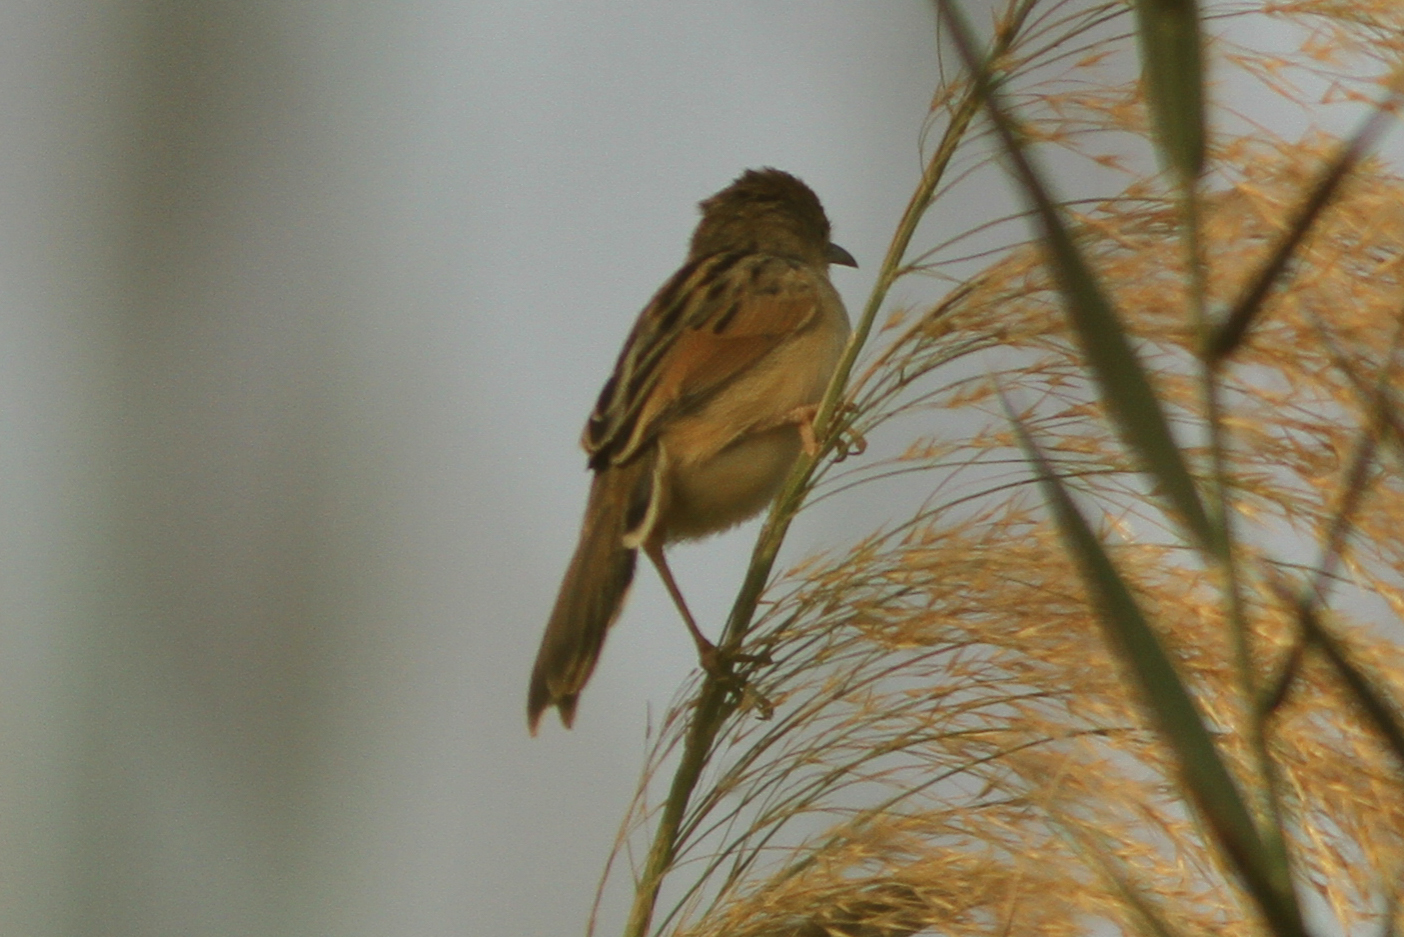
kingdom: Animalia
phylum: Chordata
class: Aves
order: Passeriformes
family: Cisticolidae
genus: Cisticola
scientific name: Cisticola marginatus
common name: Winding cisticola
